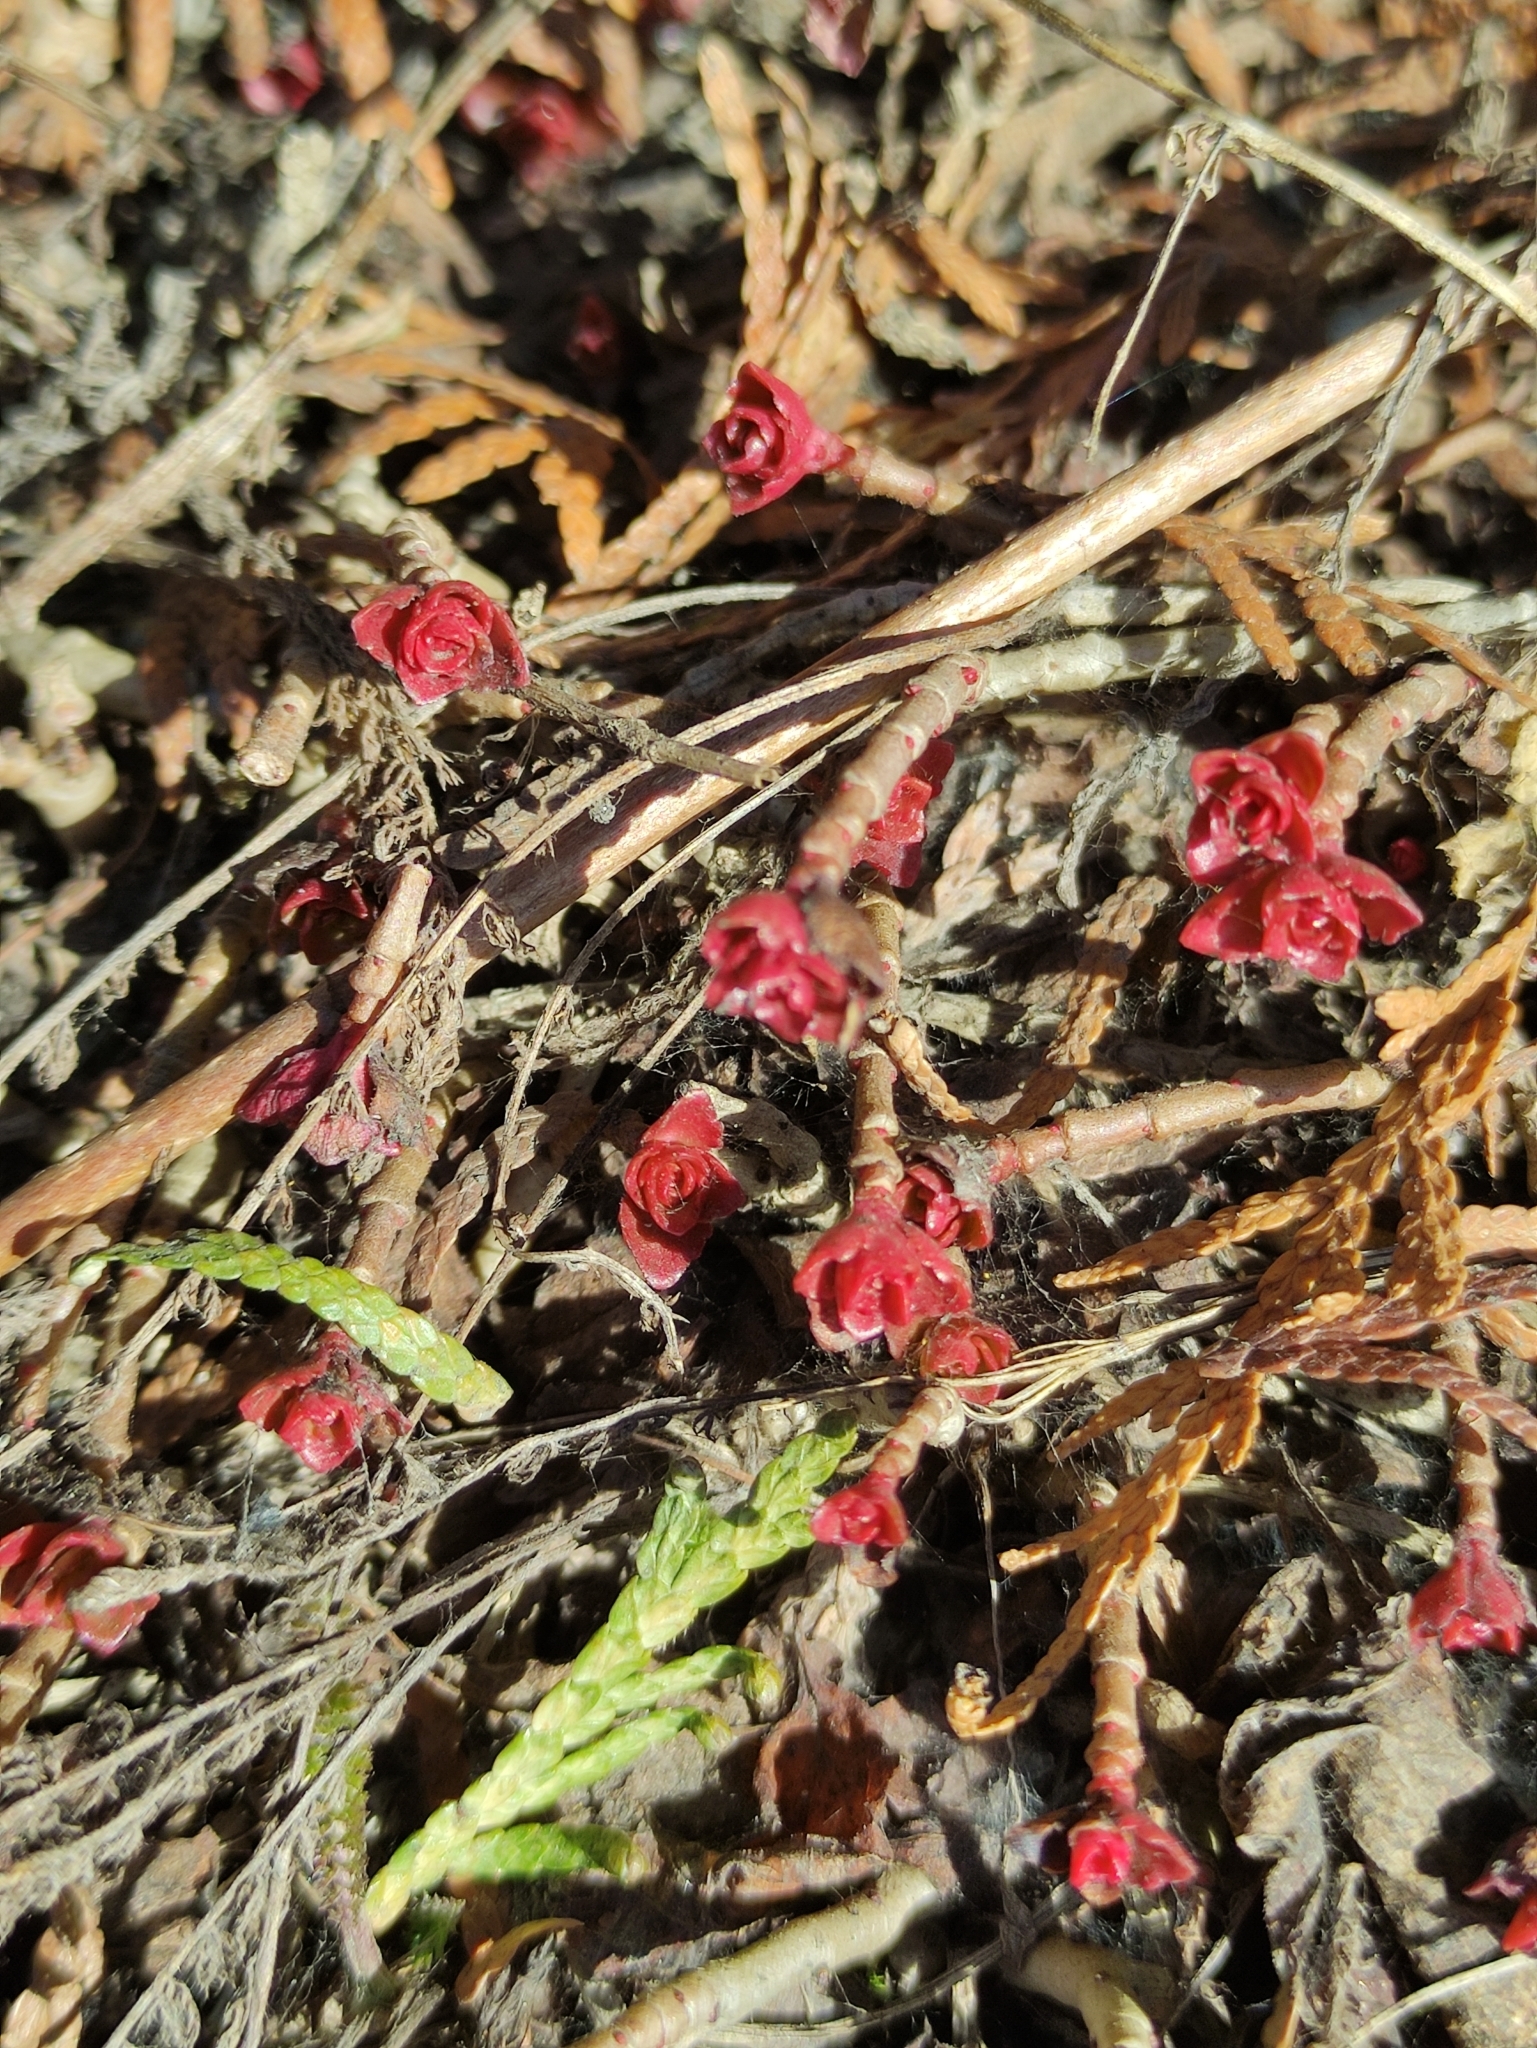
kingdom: Plantae
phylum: Tracheophyta
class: Magnoliopsida
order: Saxifragales
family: Crassulaceae
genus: Phedimus
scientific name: Phedimus spurius
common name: Caucasian stonecrop
